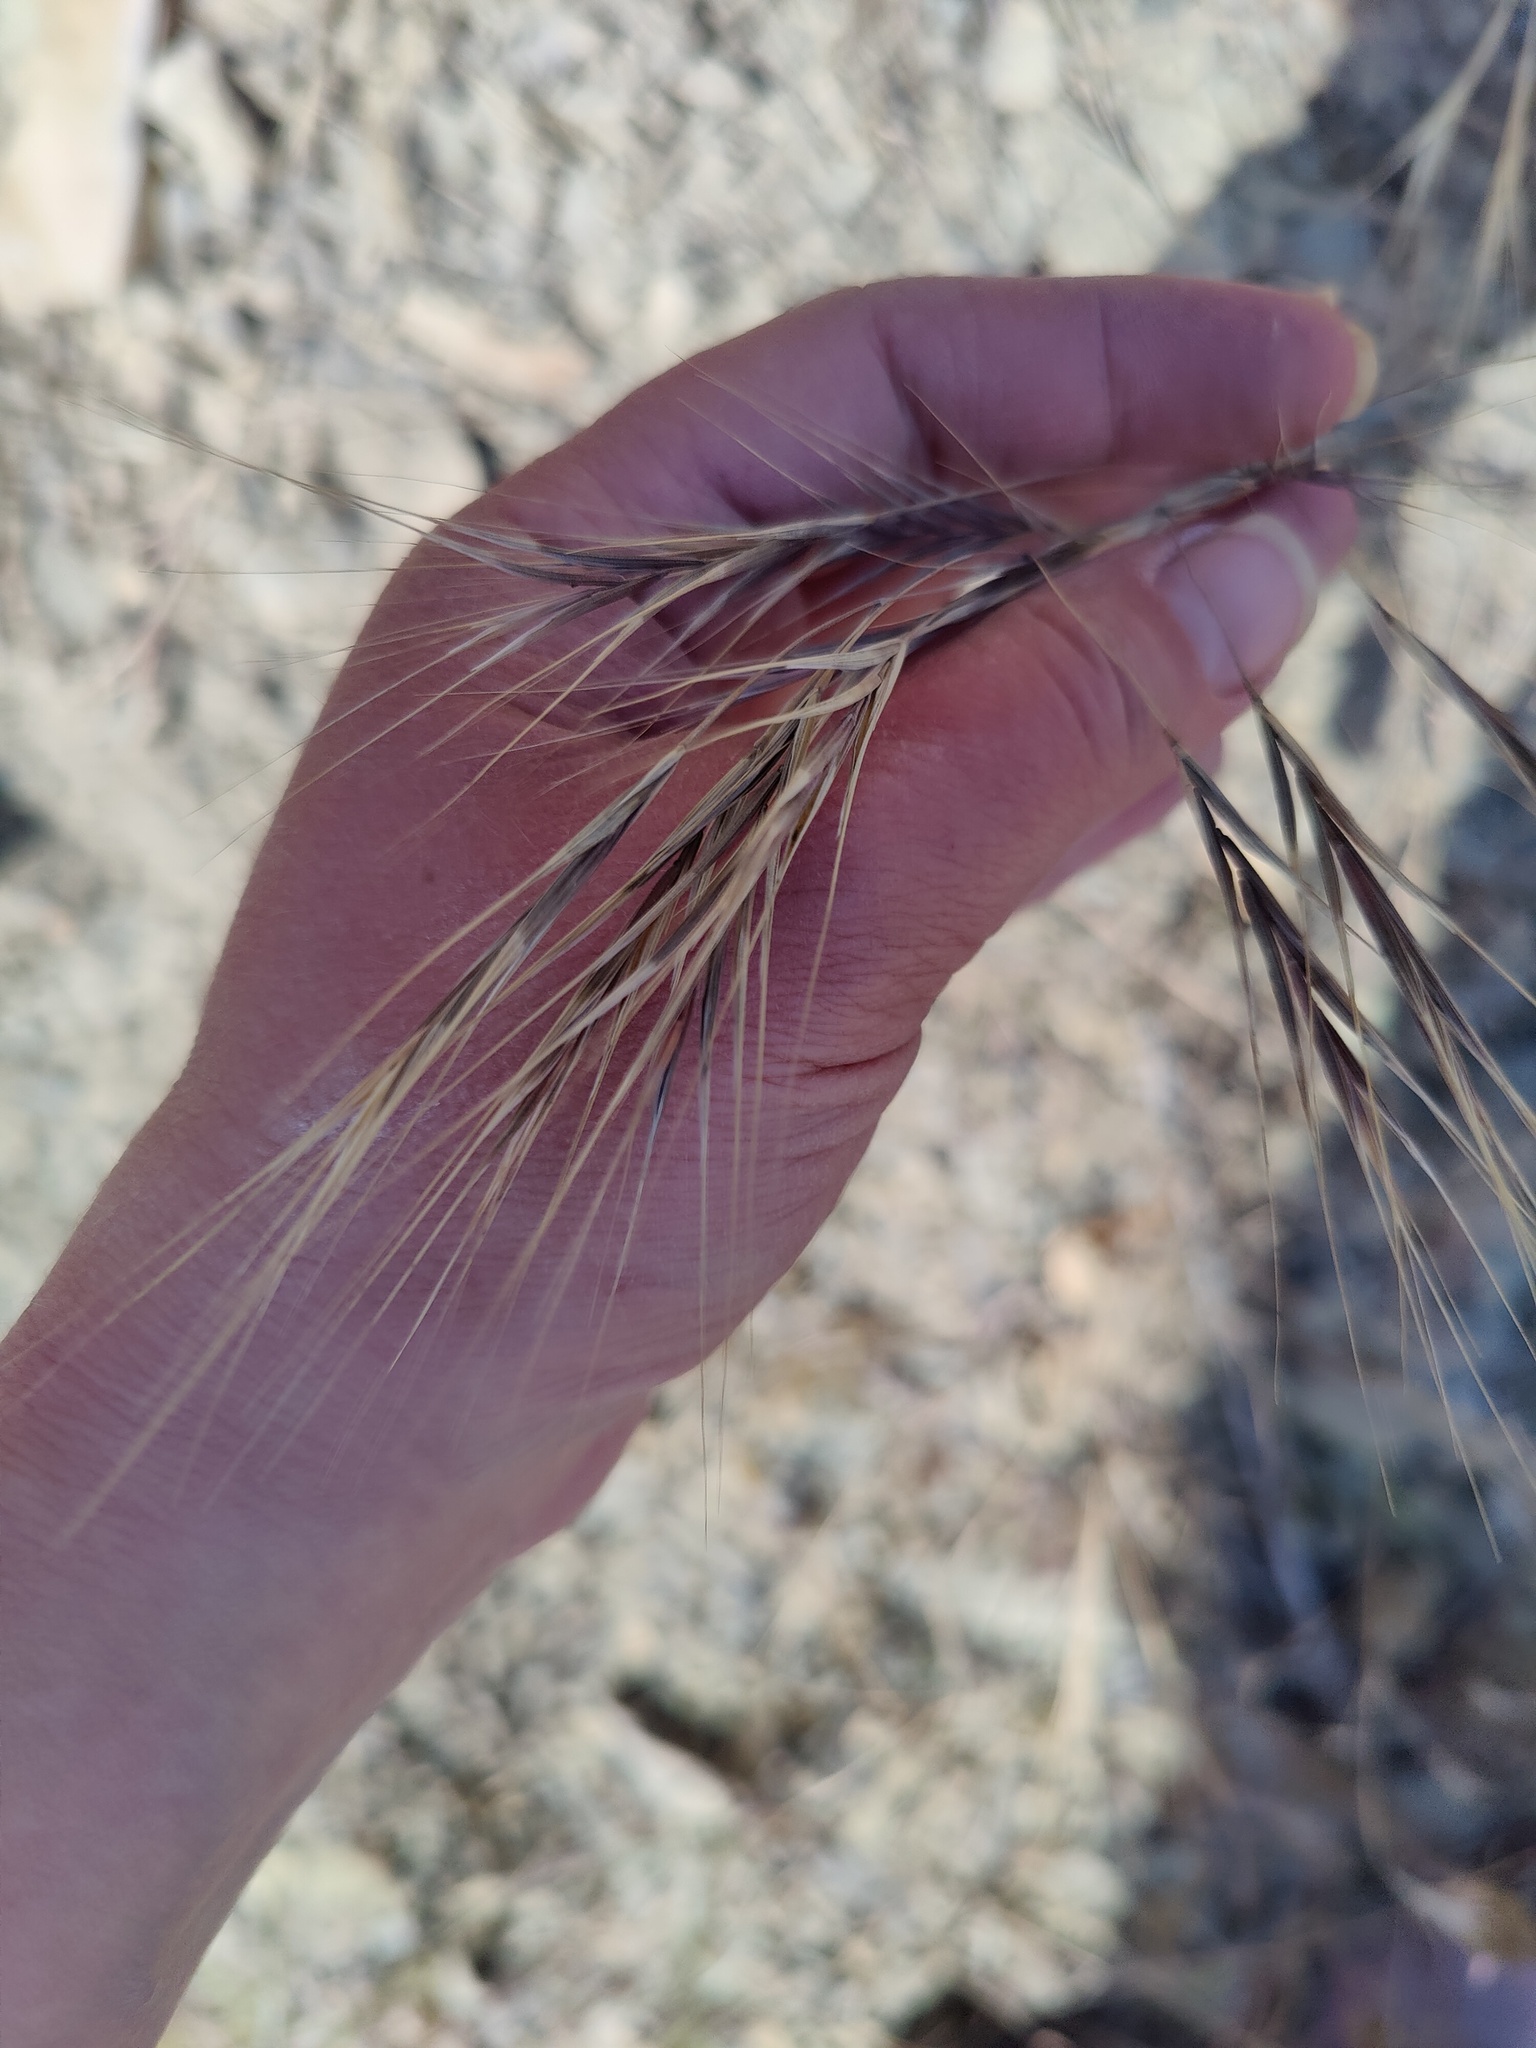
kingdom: Plantae
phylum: Tracheophyta
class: Liliopsida
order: Poales
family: Poaceae
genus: Bromus
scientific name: Bromus tectorum
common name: Cheatgrass
